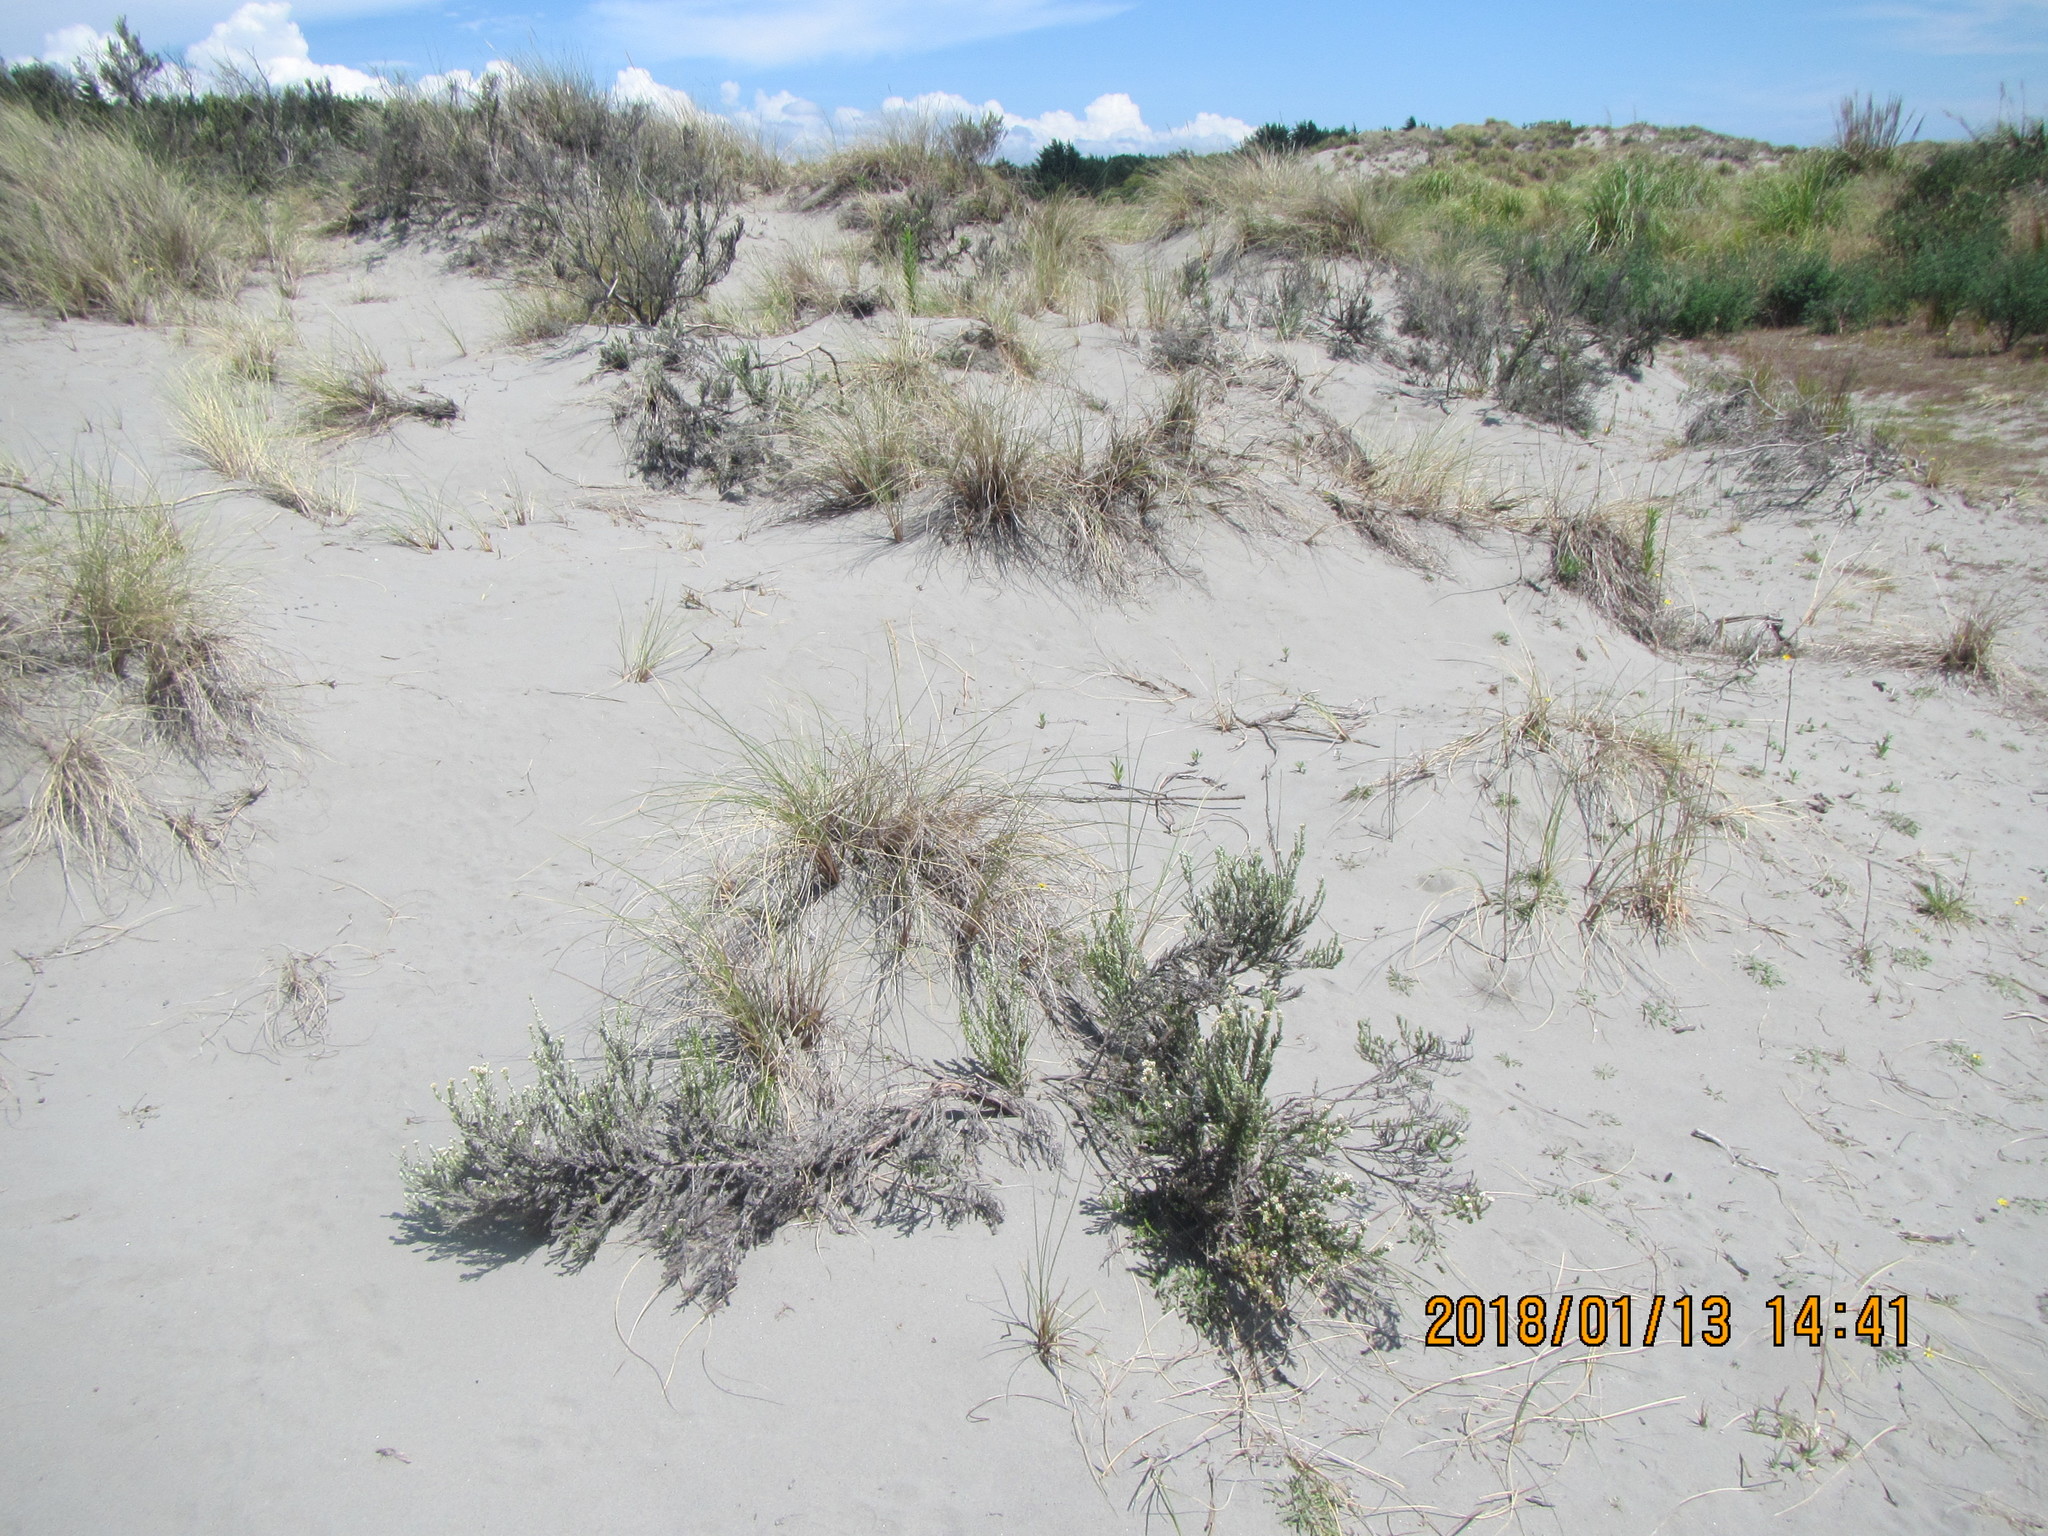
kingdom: Plantae
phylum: Tracheophyta
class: Magnoliopsida
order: Asterales
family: Asteraceae
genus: Ozothamnus
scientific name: Ozothamnus leptophyllus
